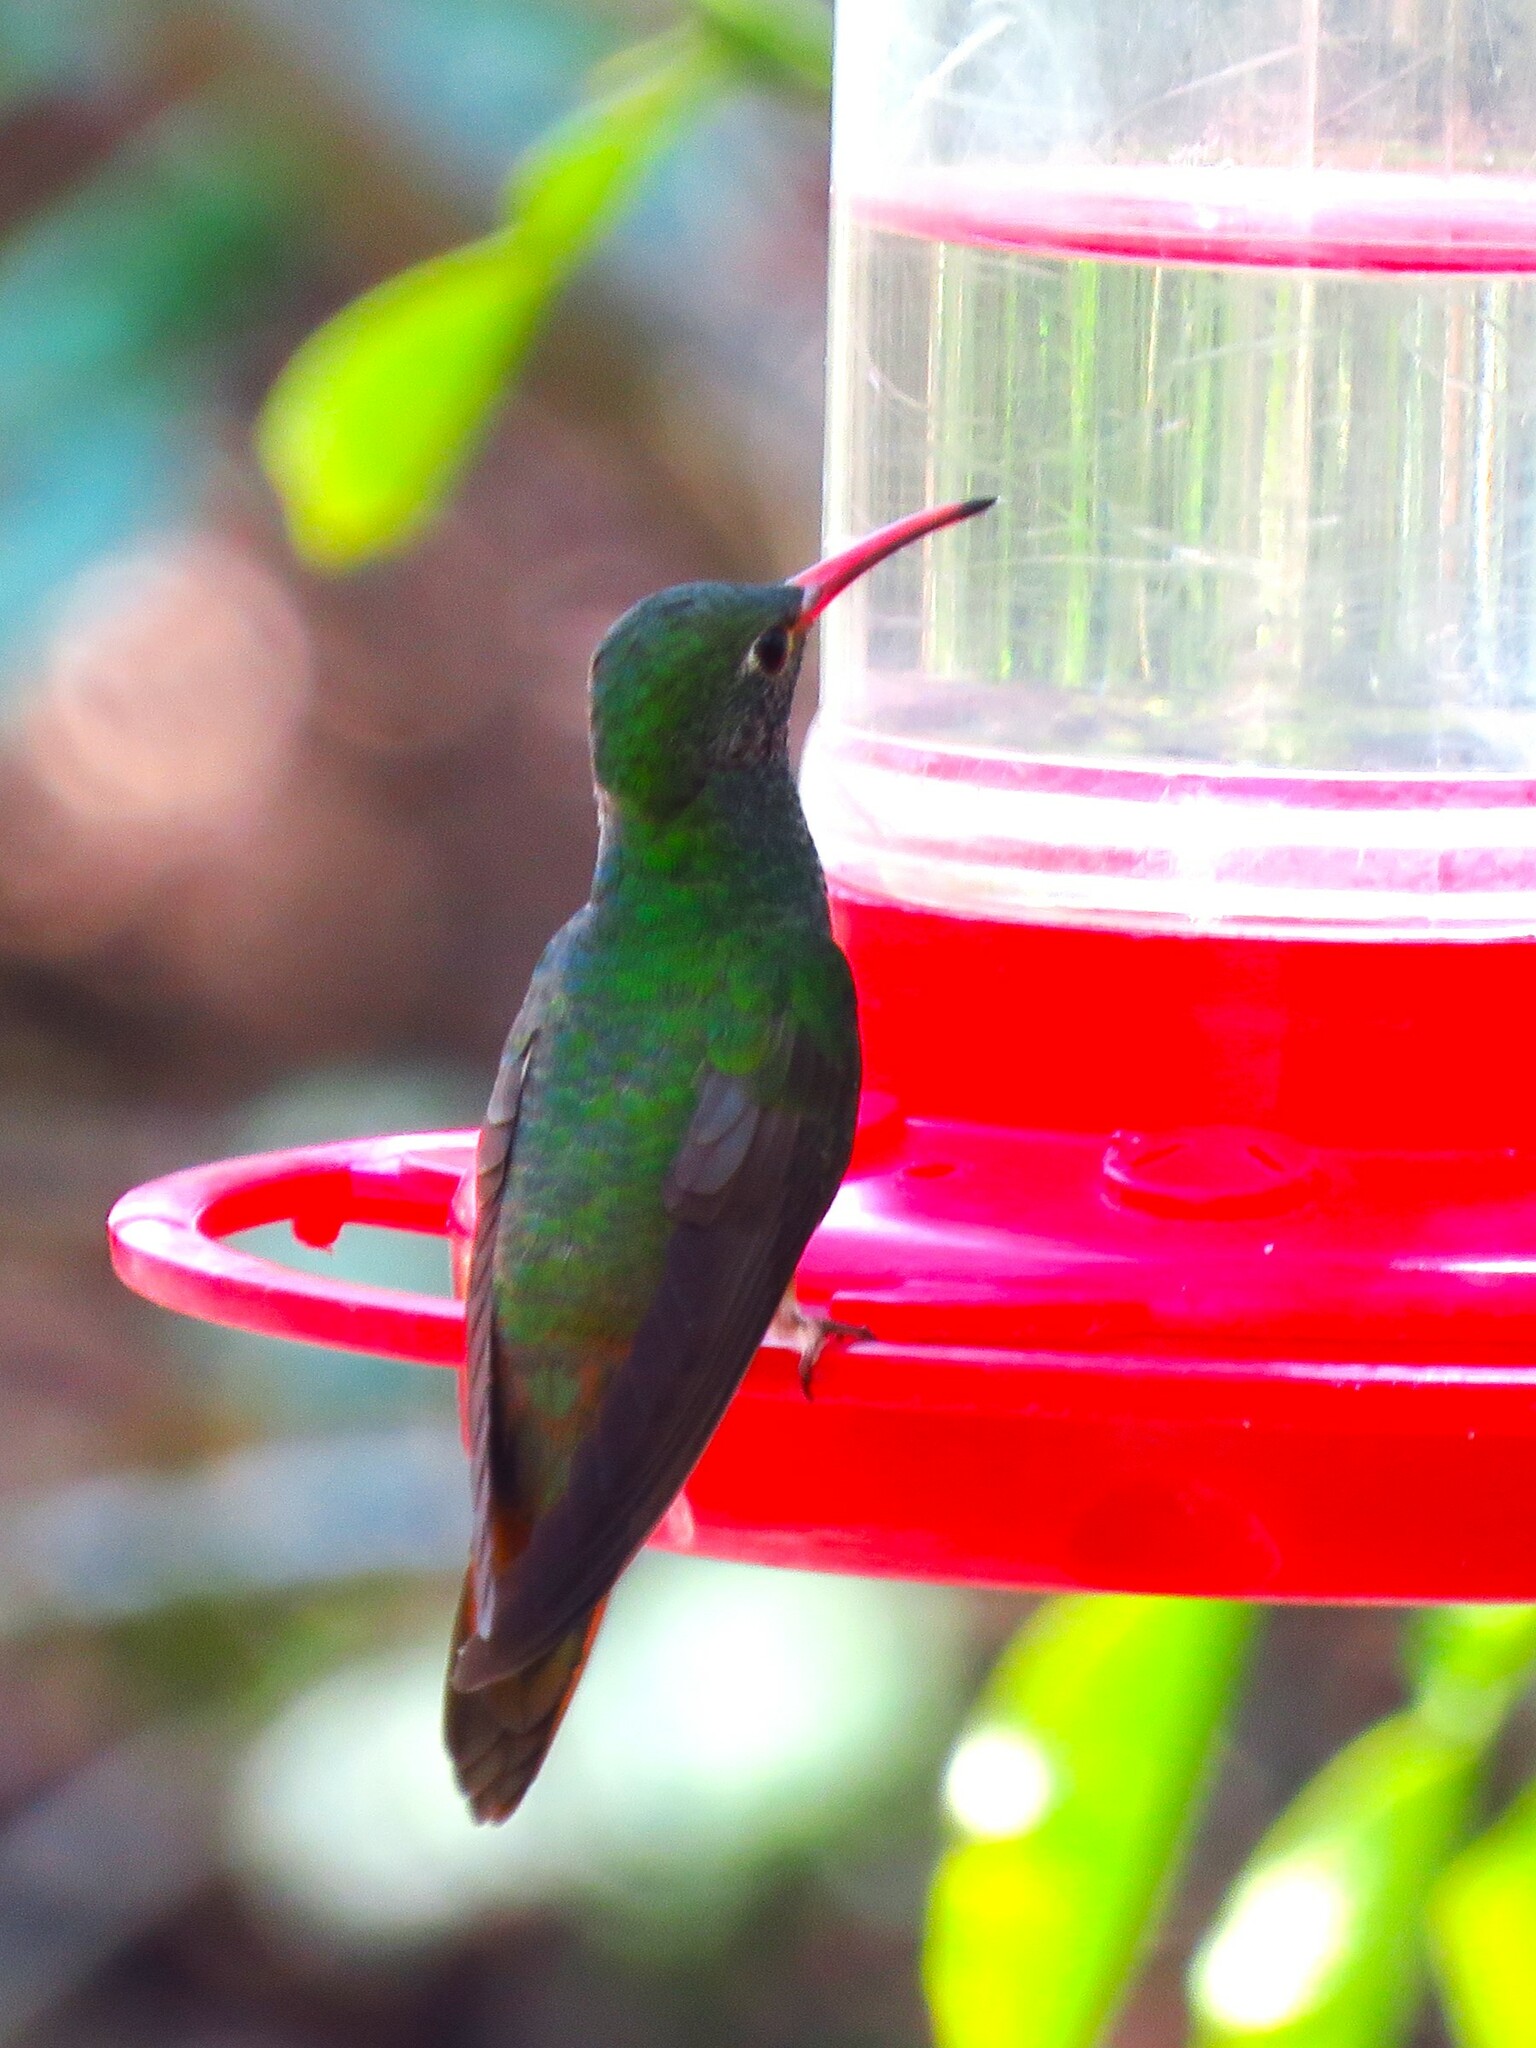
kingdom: Animalia
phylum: Chordata
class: Aves
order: Apodiformes
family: Trochilidae
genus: Amazilia
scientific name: Amazilia yucatanensis
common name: Buff-bellied hummingbird
